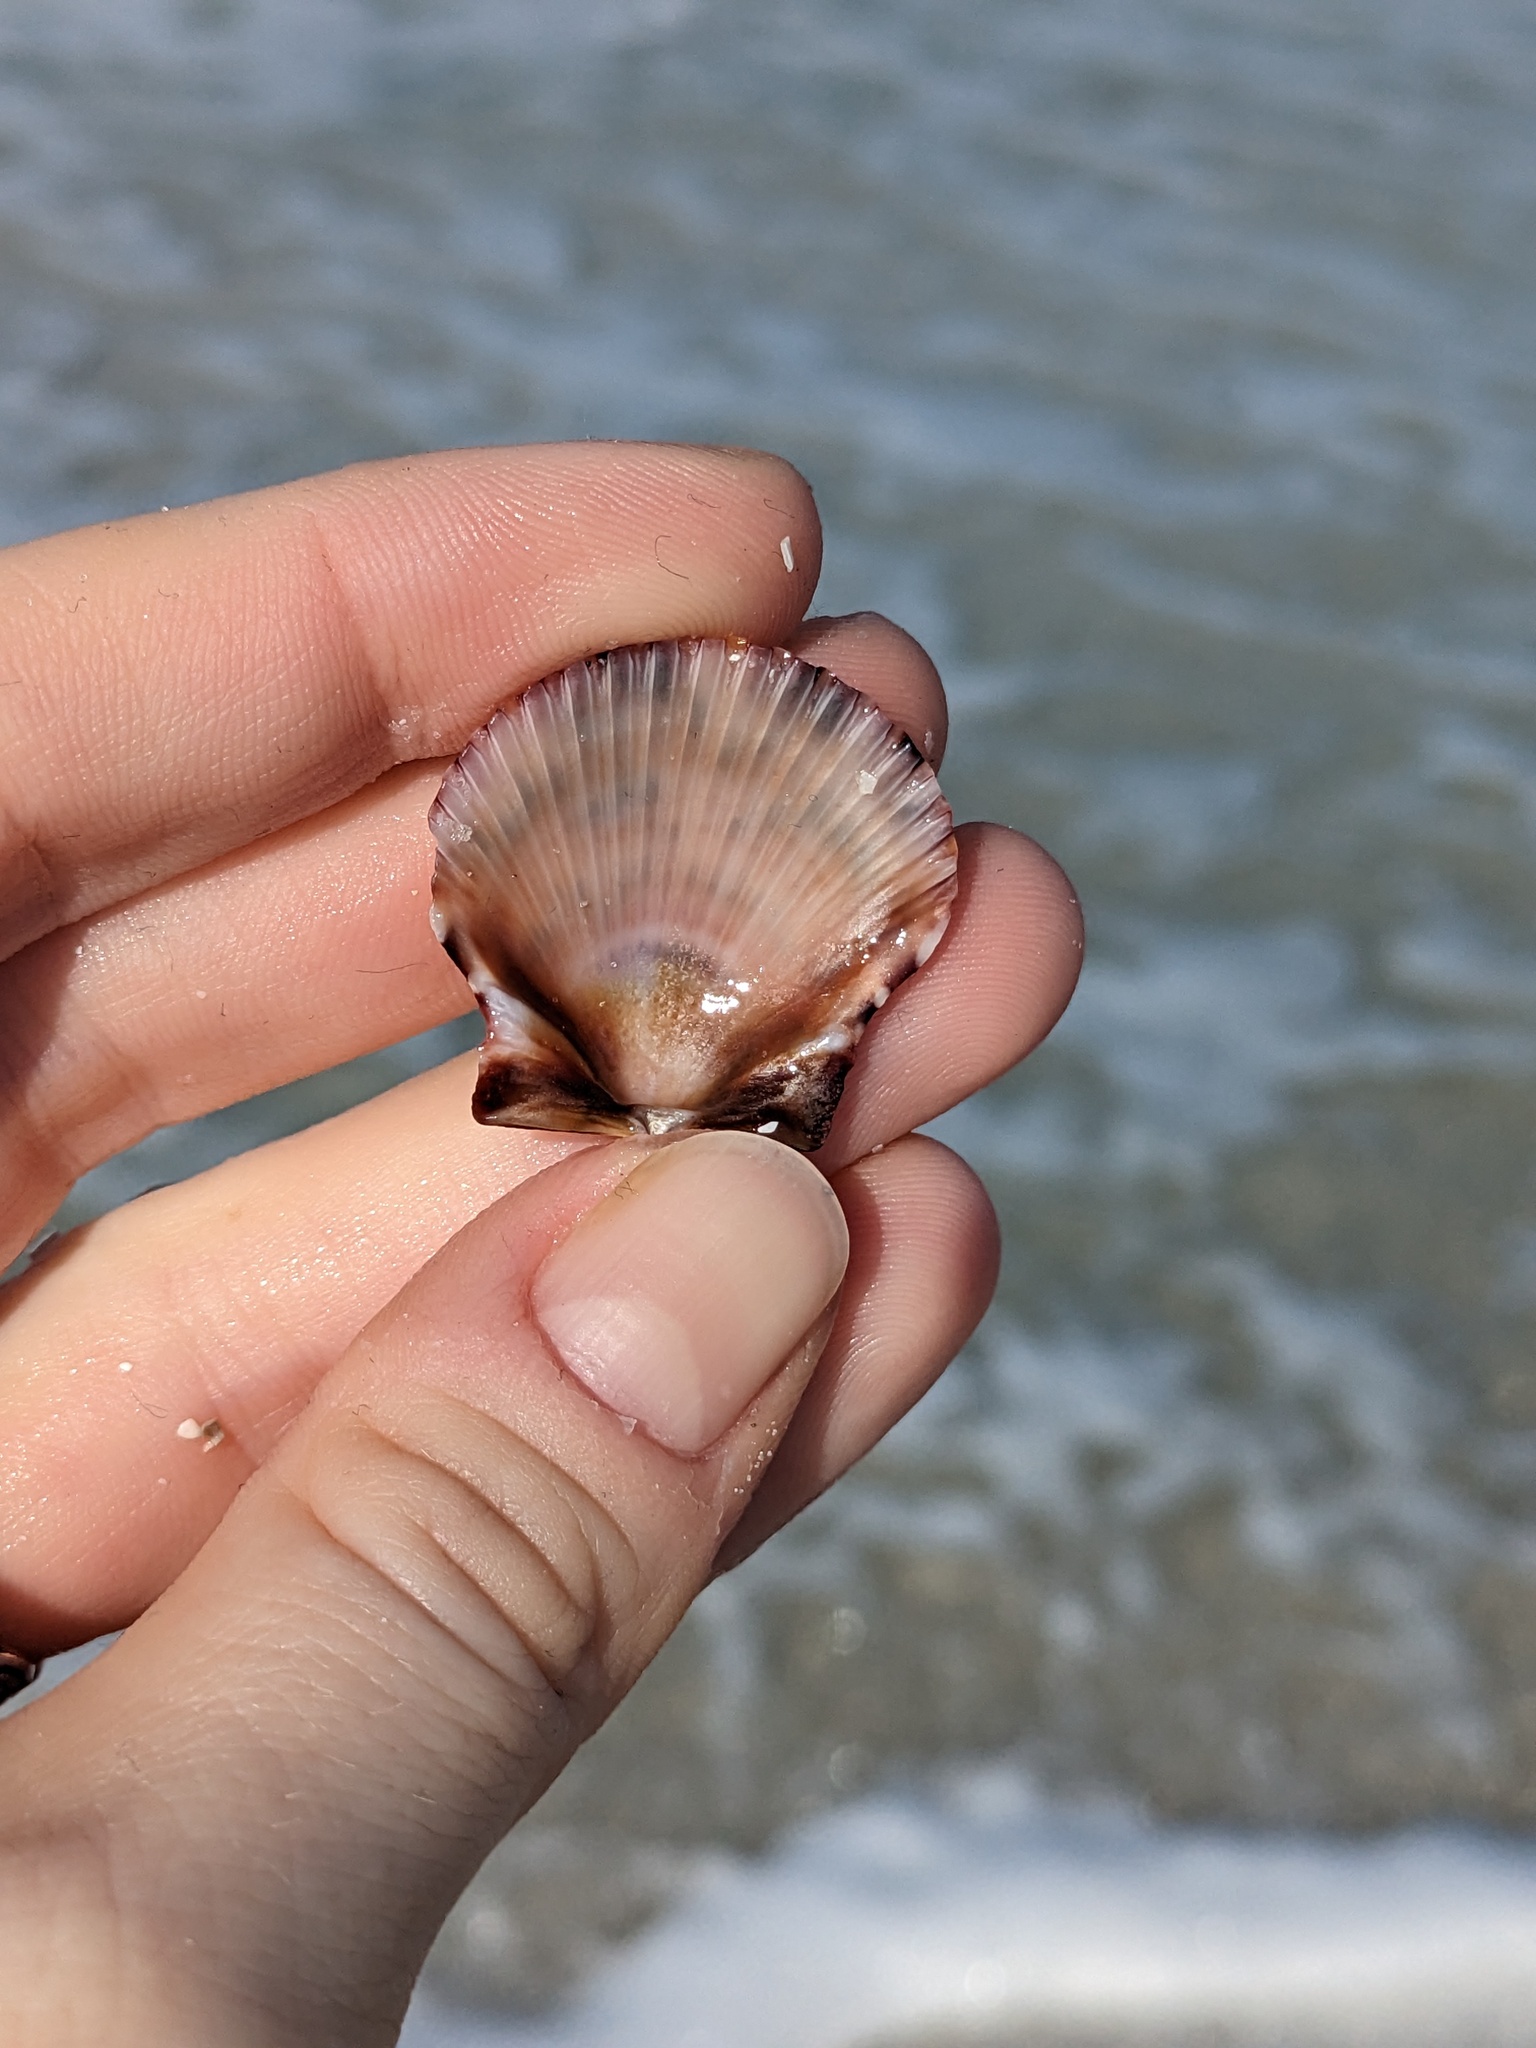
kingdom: Animalia
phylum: Mollusca
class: Bivalvia
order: Pectinida
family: Pectinidae
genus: Argopecten
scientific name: Argopecten gibbus
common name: Atlantic calico scallop
